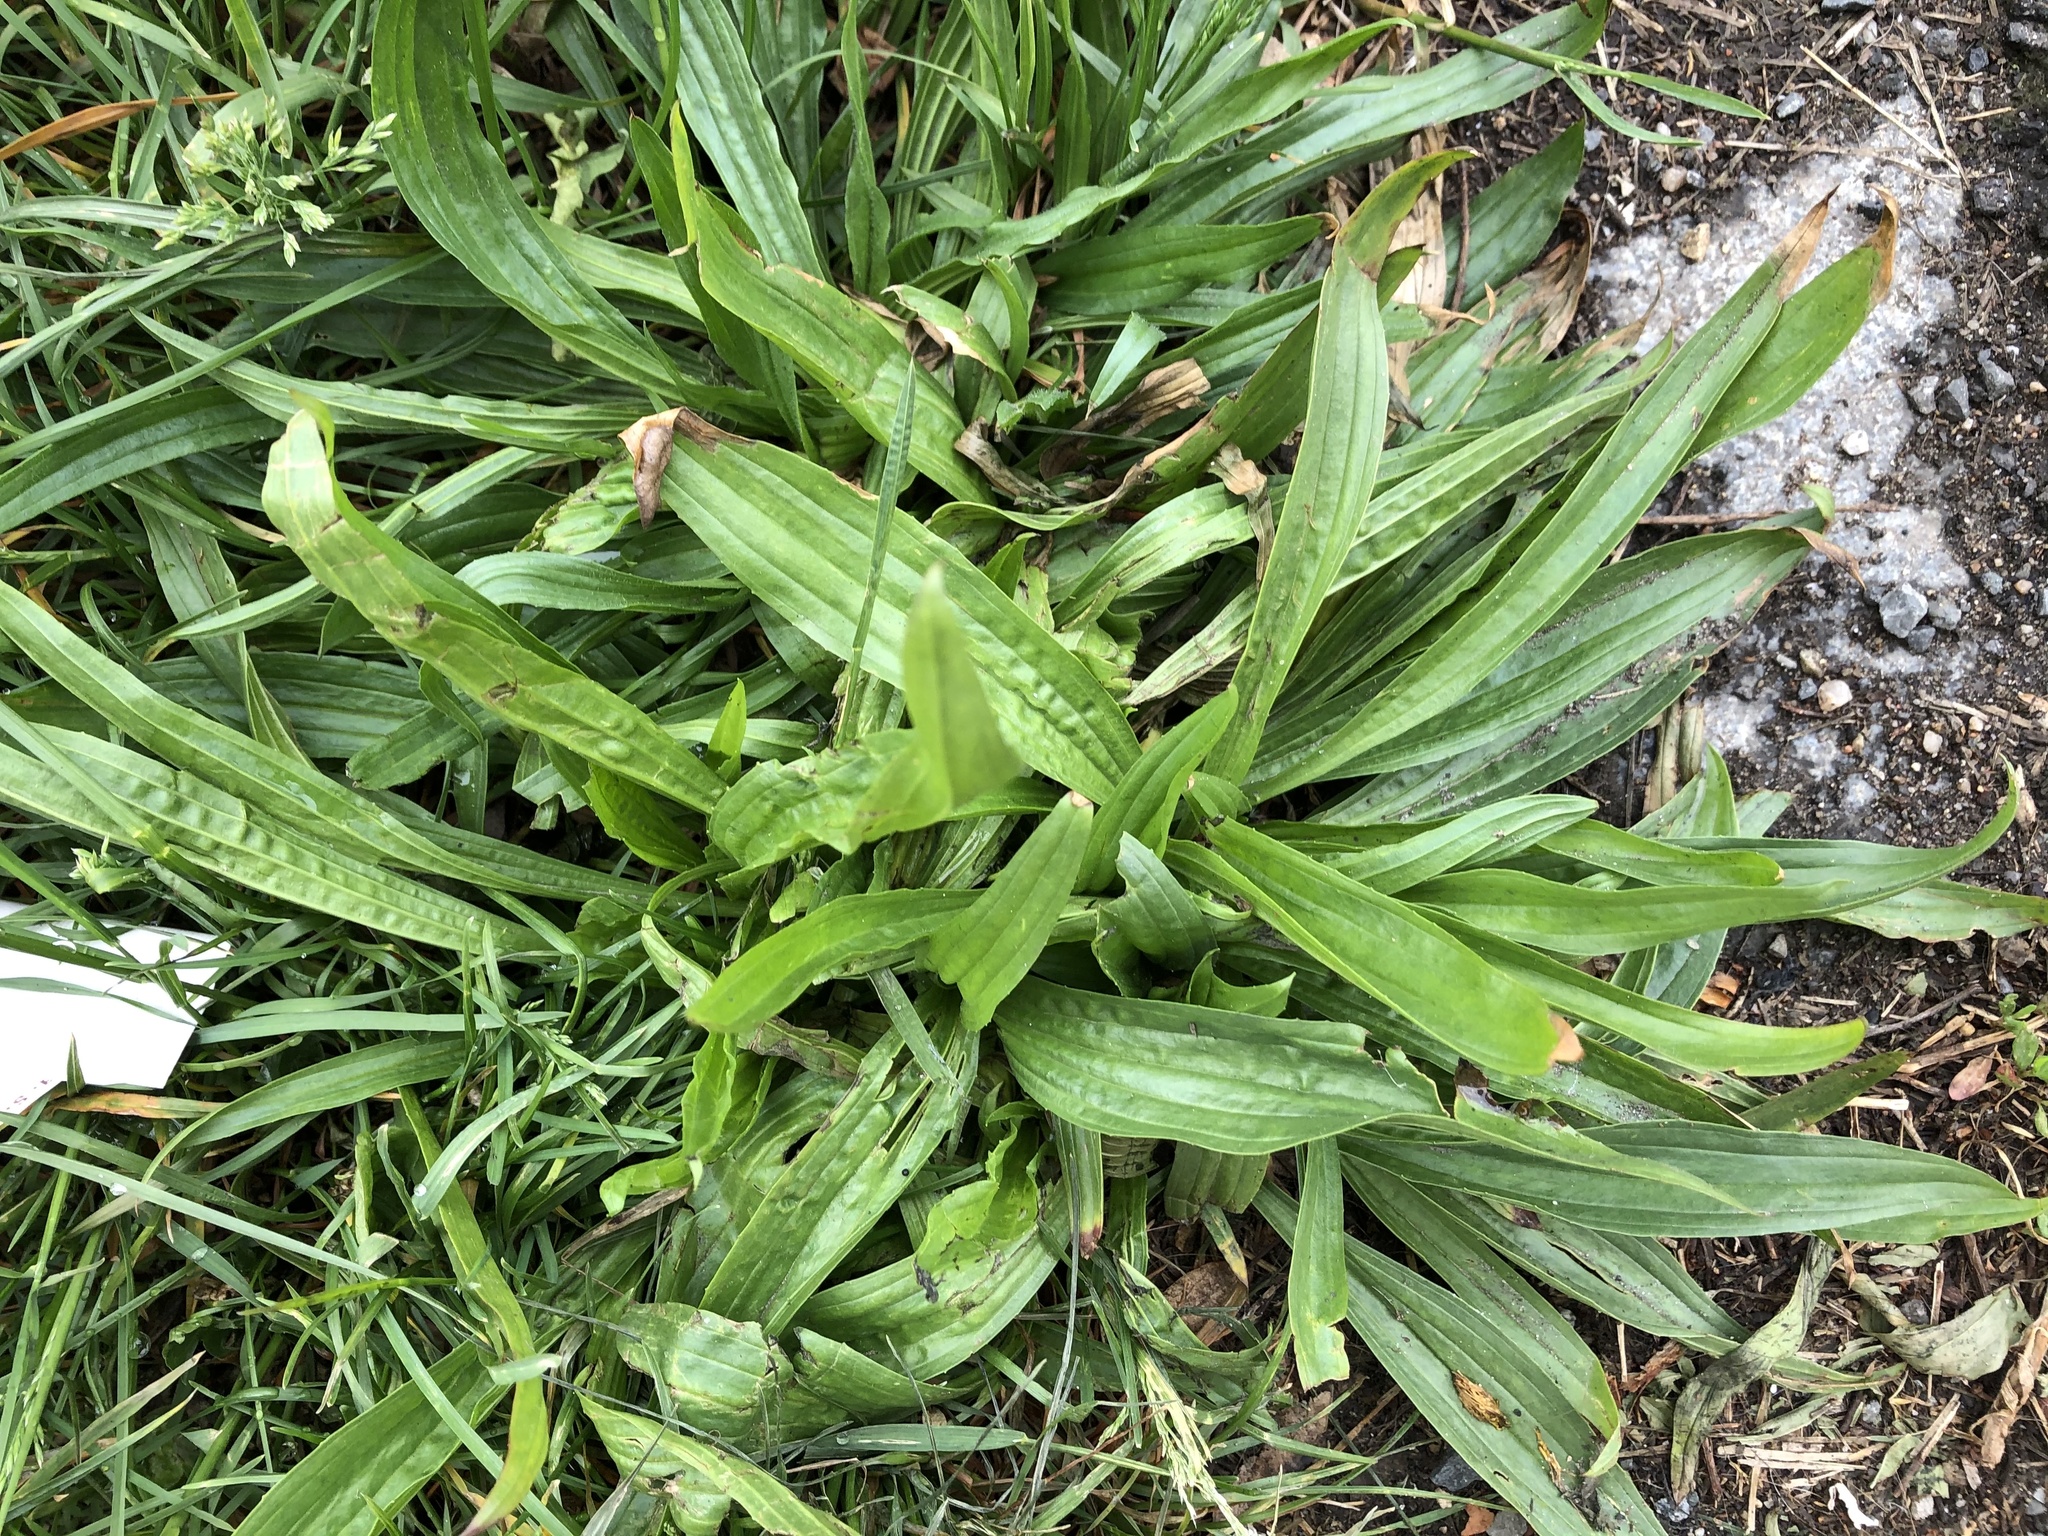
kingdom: Plantae
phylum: Tracheophyta
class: Magnoliopsida
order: Lamiales
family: Plantaginaceae
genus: Plantago
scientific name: Plantago lanceolata
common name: Ribwort plantain
